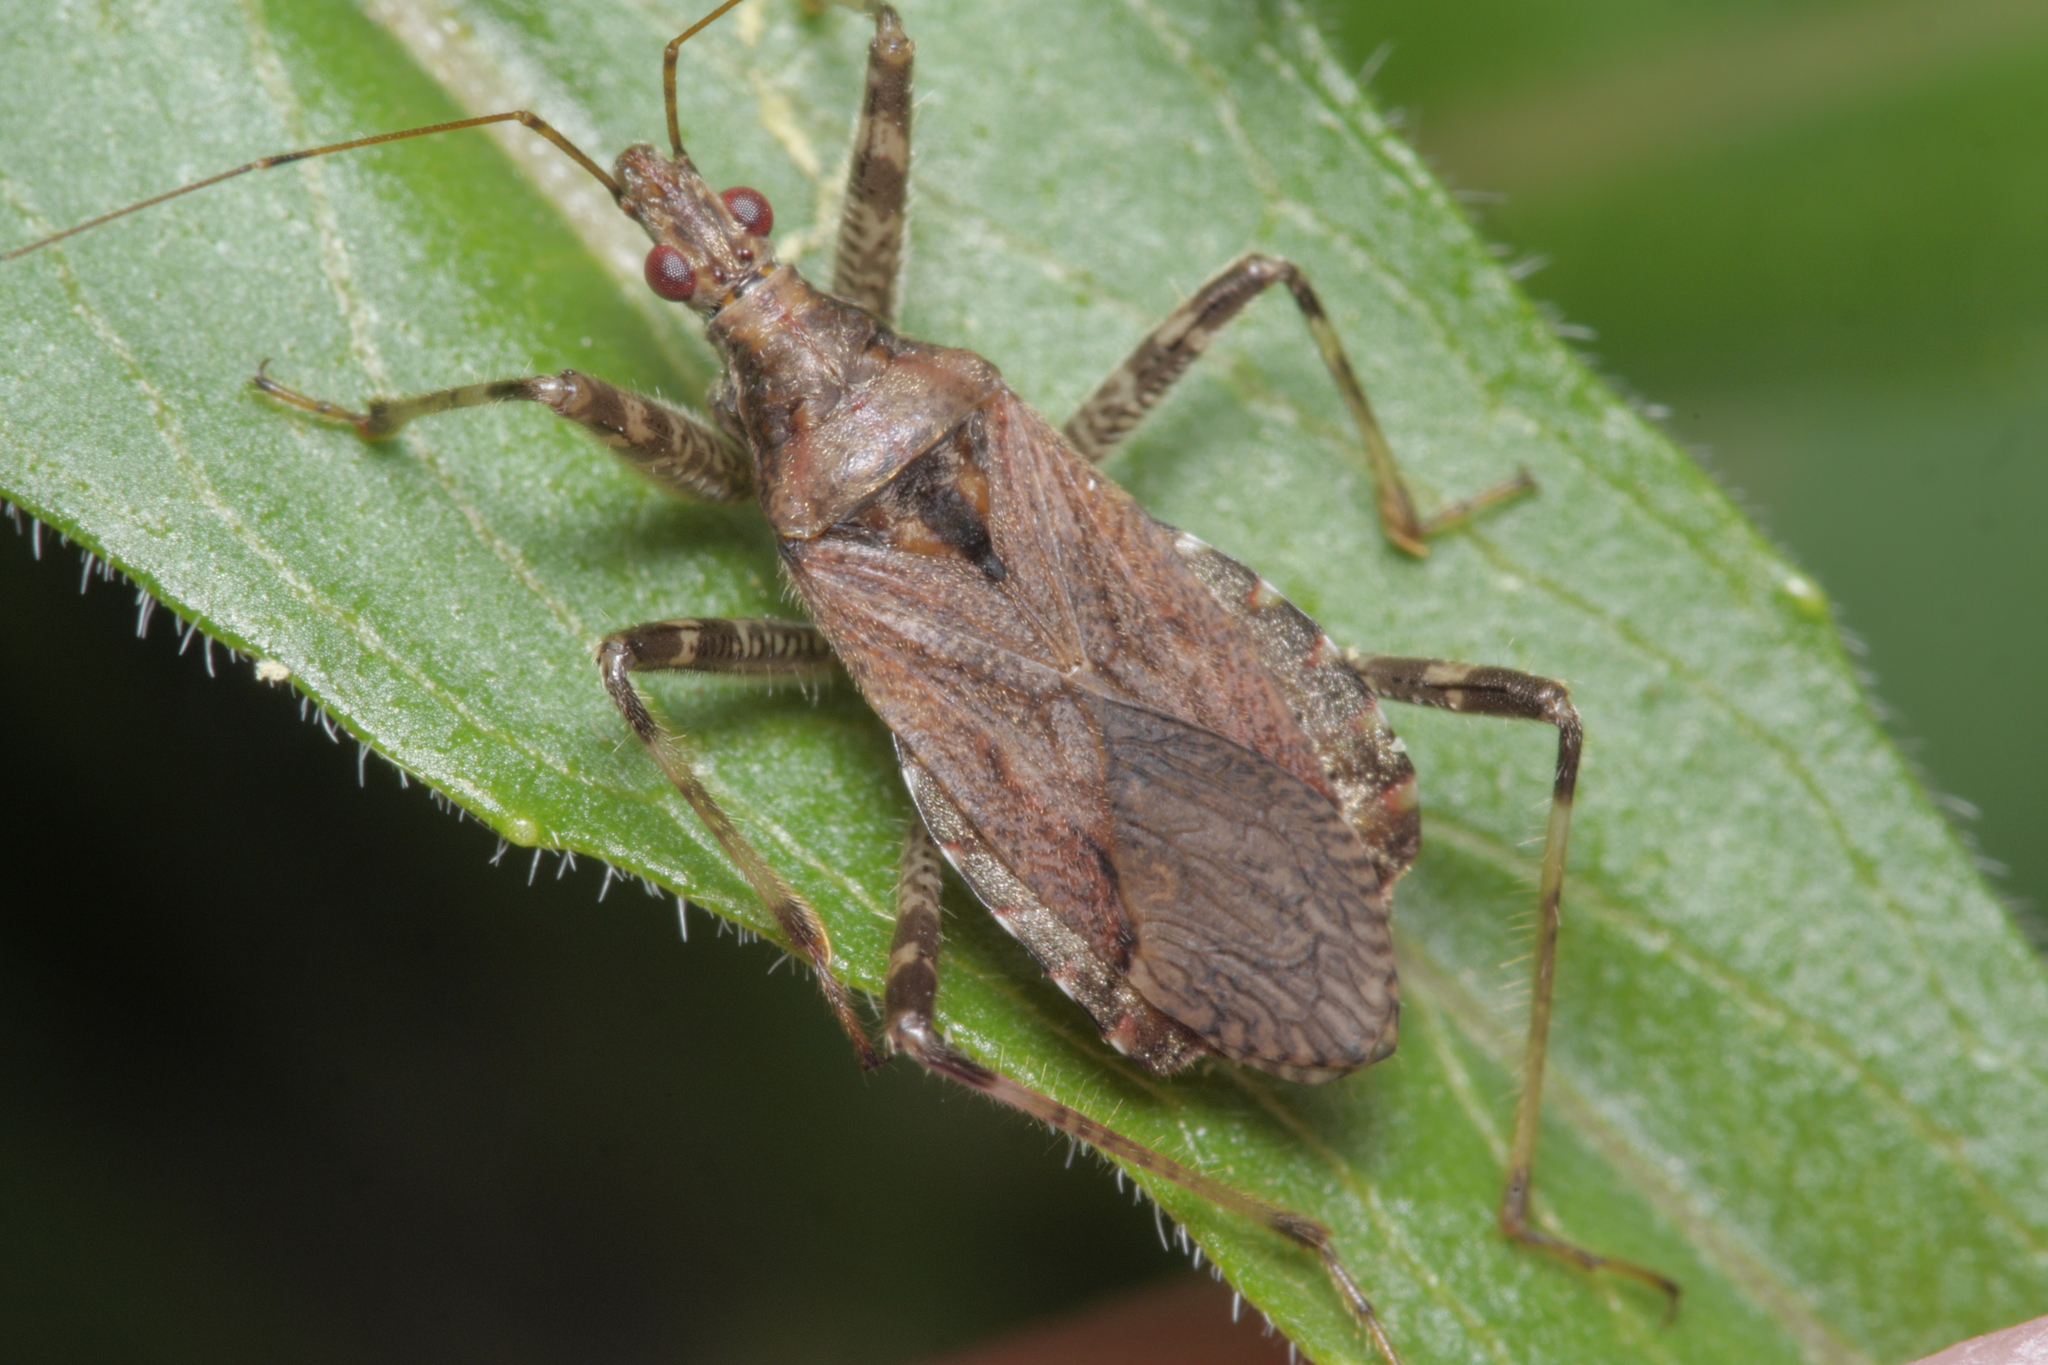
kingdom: Animalia
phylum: Arthropoda
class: Insecta
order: Hemiptera
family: Nabidae
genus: Himacerus
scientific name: Himacerus apterus
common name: Tree damsel bug
